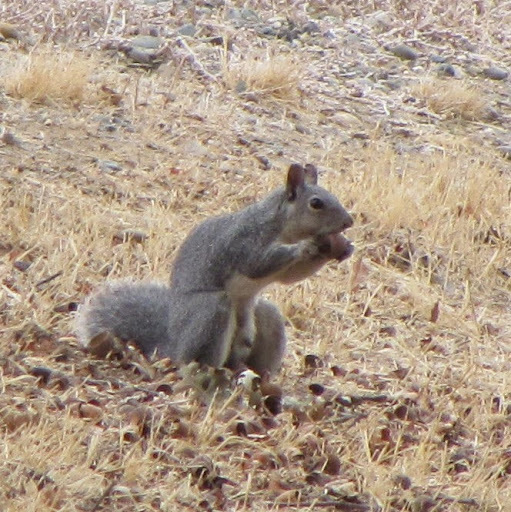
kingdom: Animalia
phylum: Chordata
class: Mammalia
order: Rodentia
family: Sciuridae
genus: Sciurus
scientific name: Sciurus griseus
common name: Western gray squirrel
